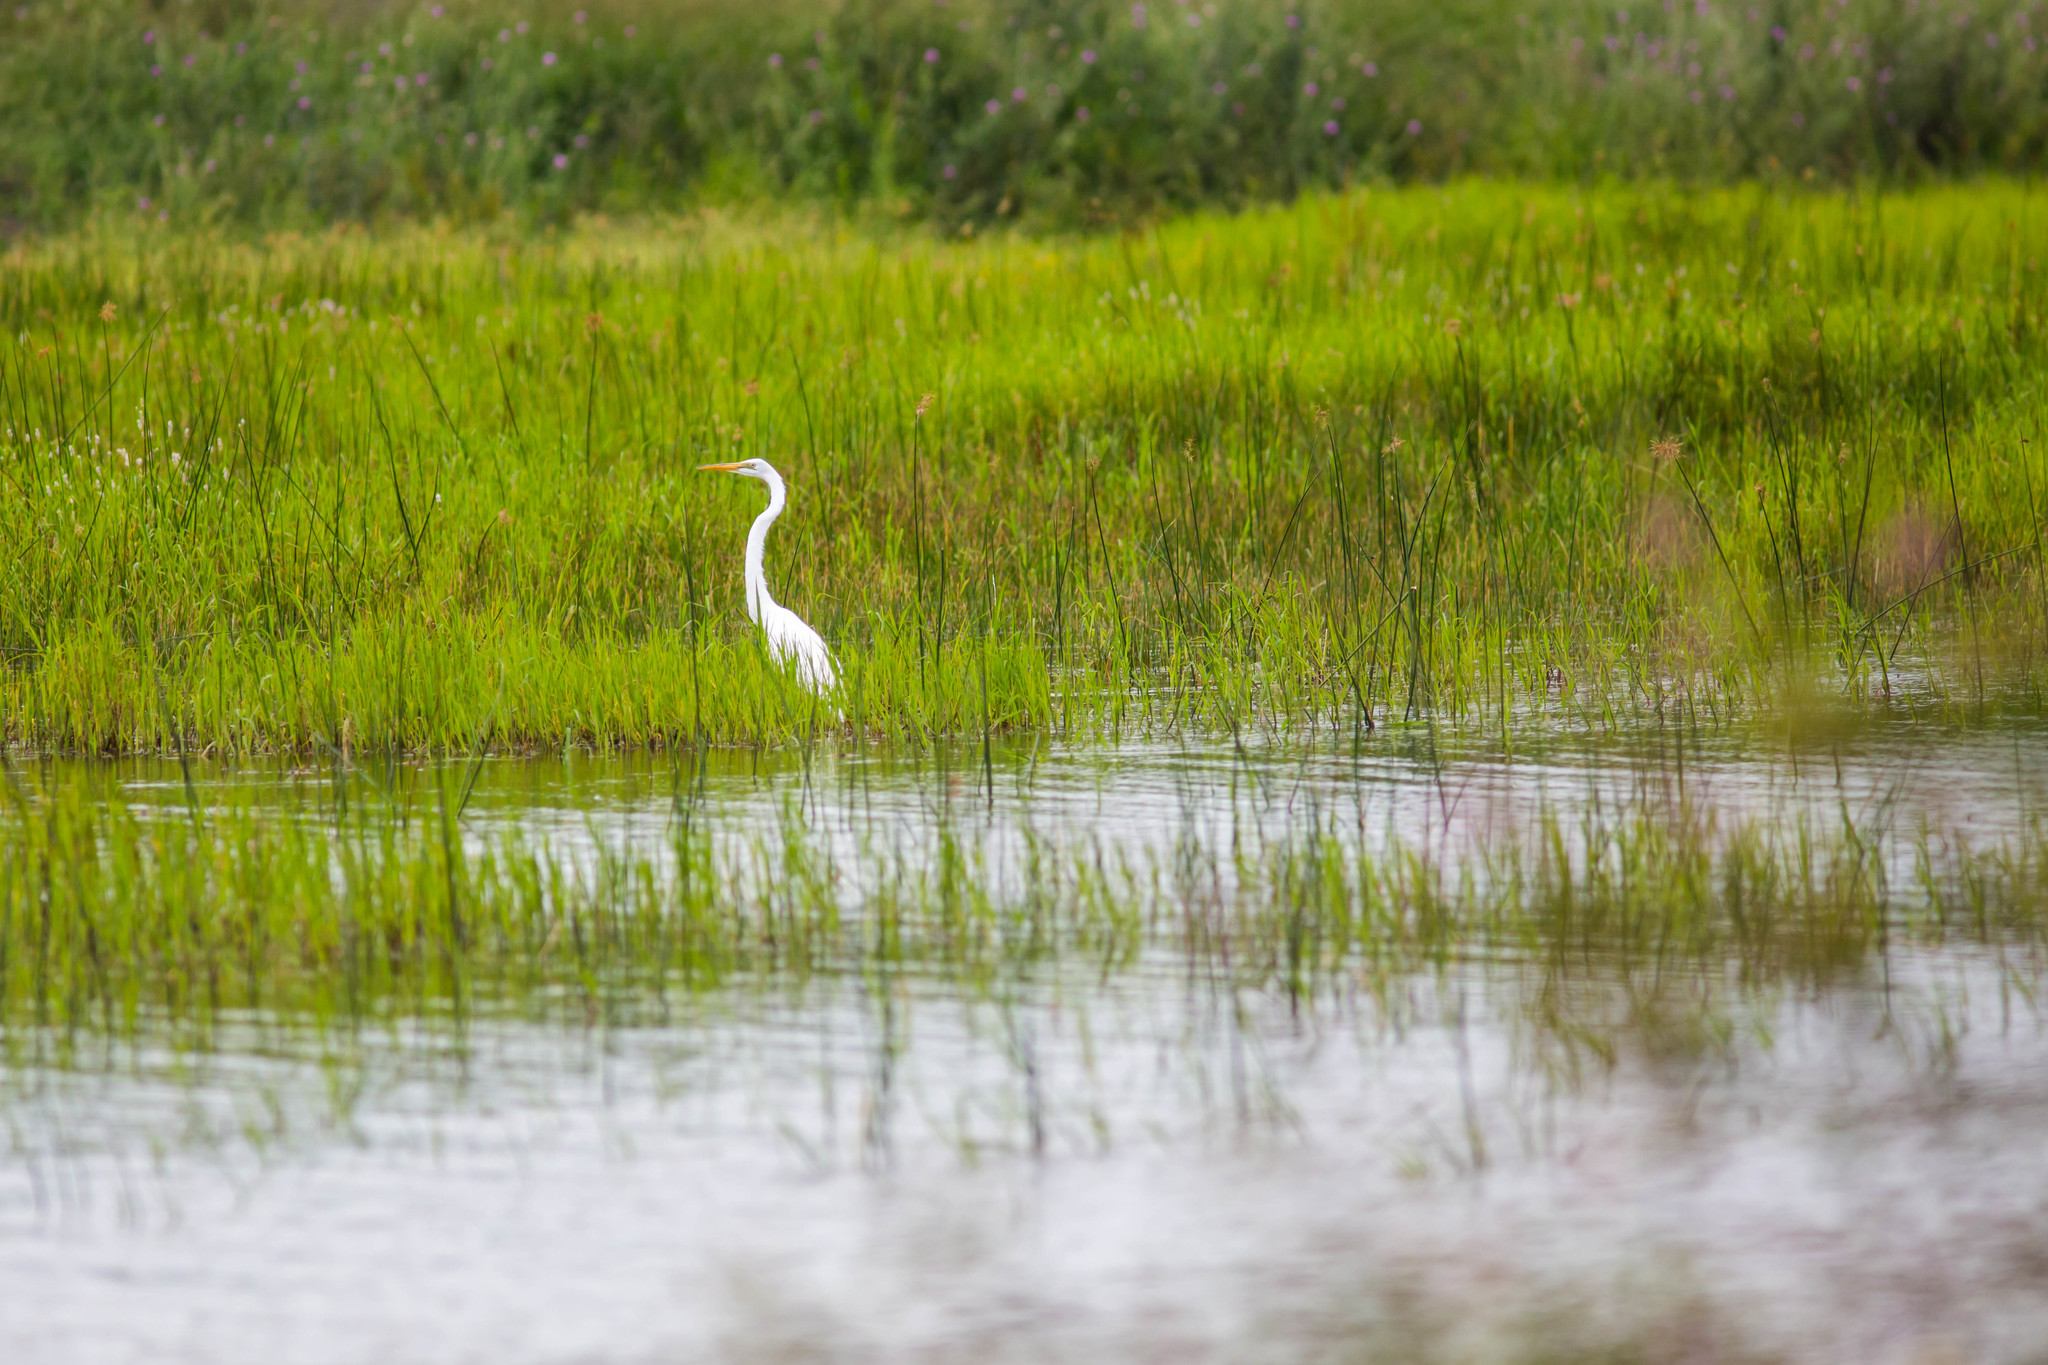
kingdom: Animalia
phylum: Chordata
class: Aves
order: Pelecaniformes
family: Ardeidae
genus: Ardea
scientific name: Ardea alba
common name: Great egret
